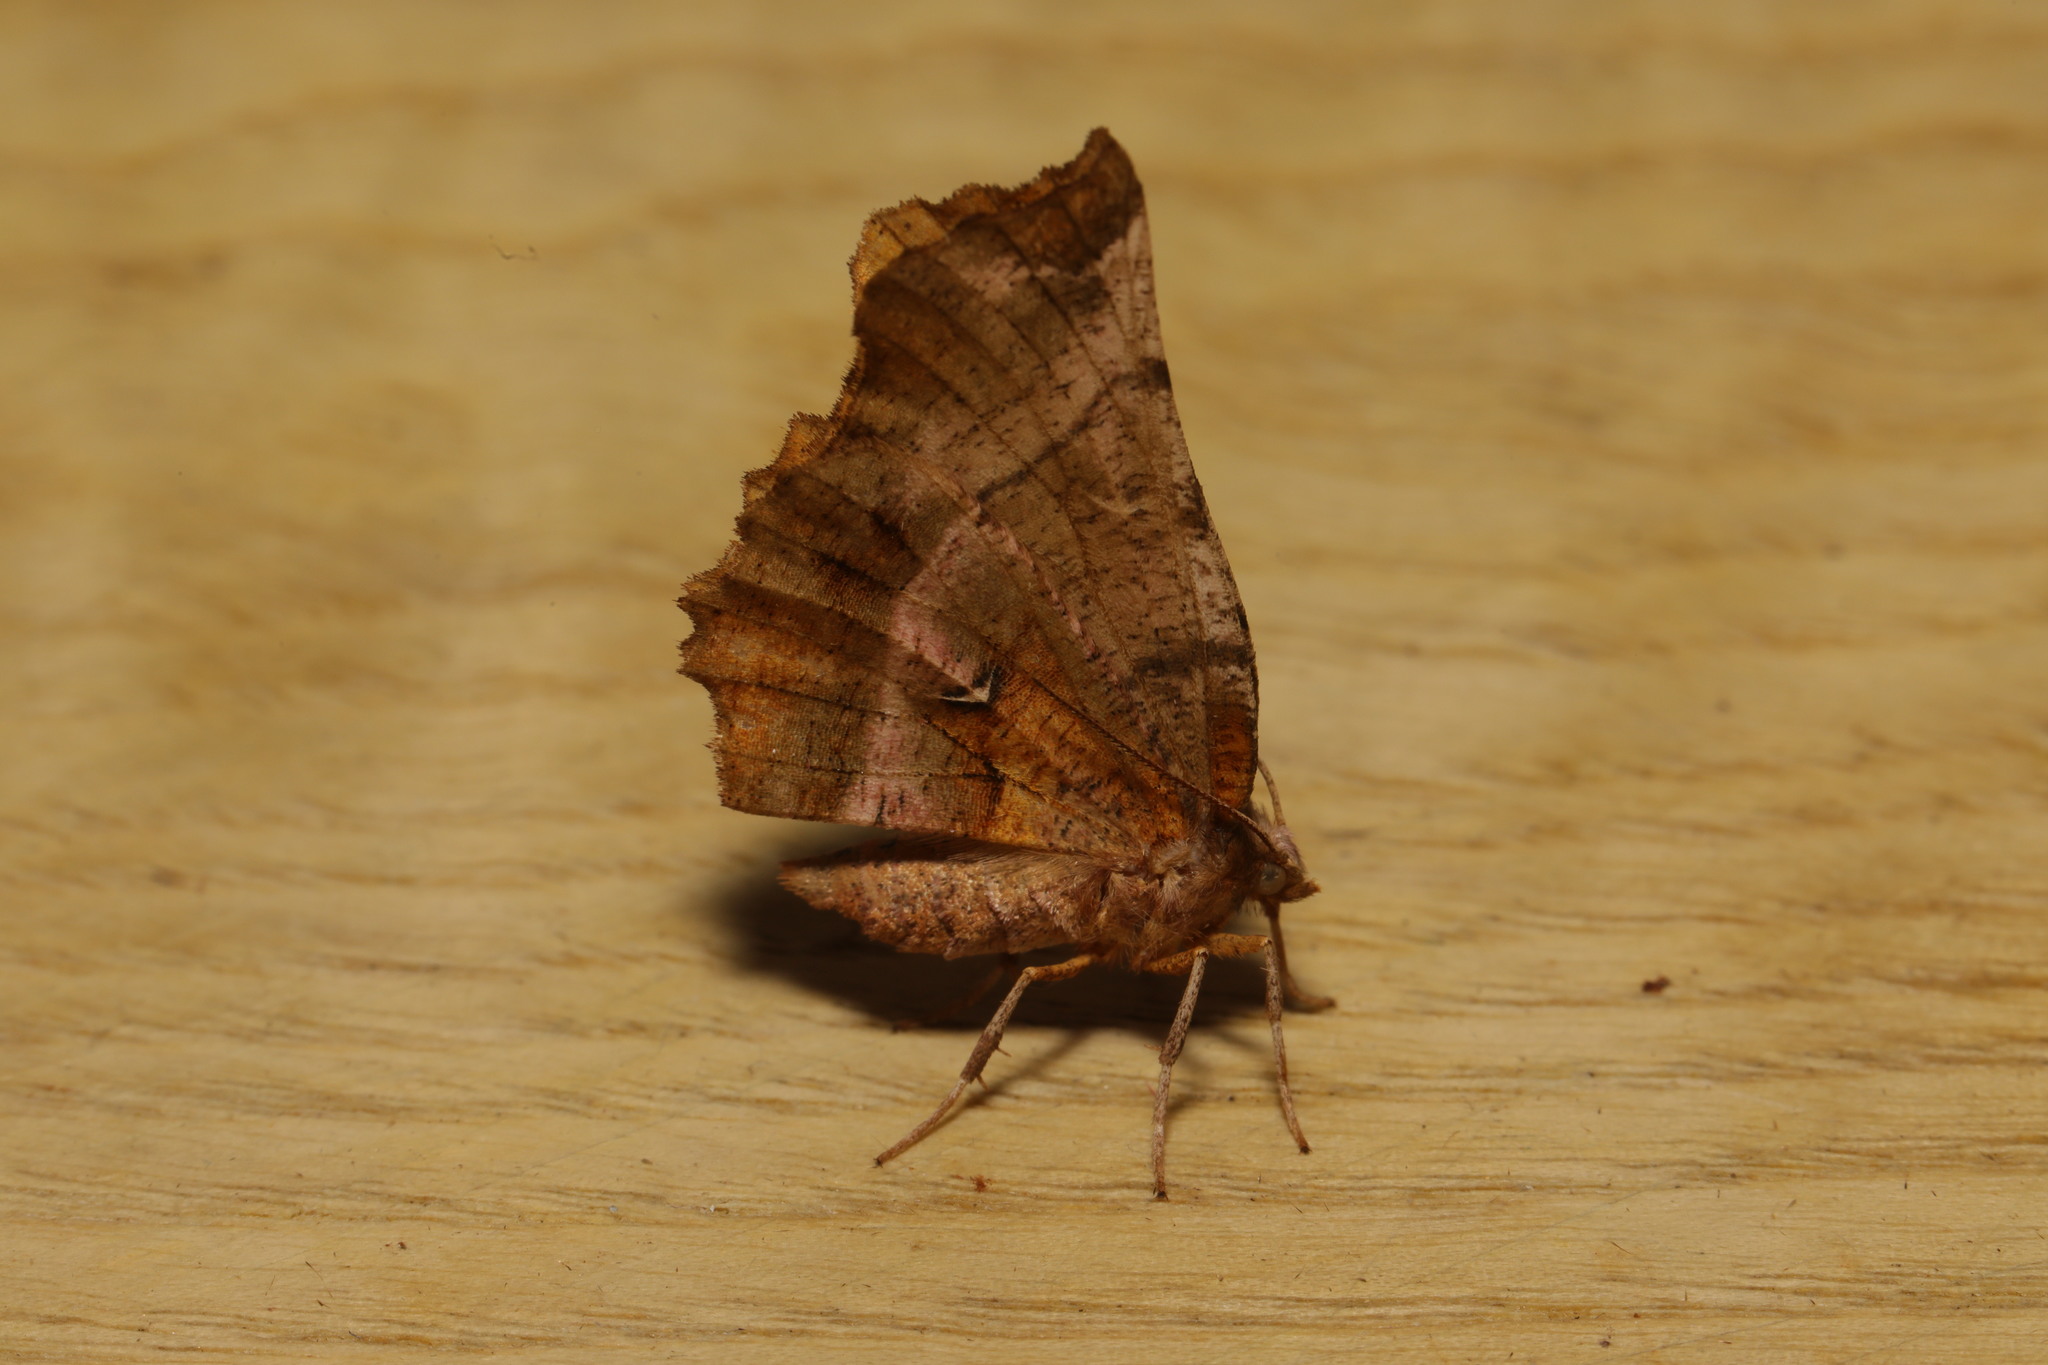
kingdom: Animalia
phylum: Arthropoda
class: Insecta
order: Lepidoptera
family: Geometridae
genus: Selenia
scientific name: Selenia dentaria
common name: Early thorn
